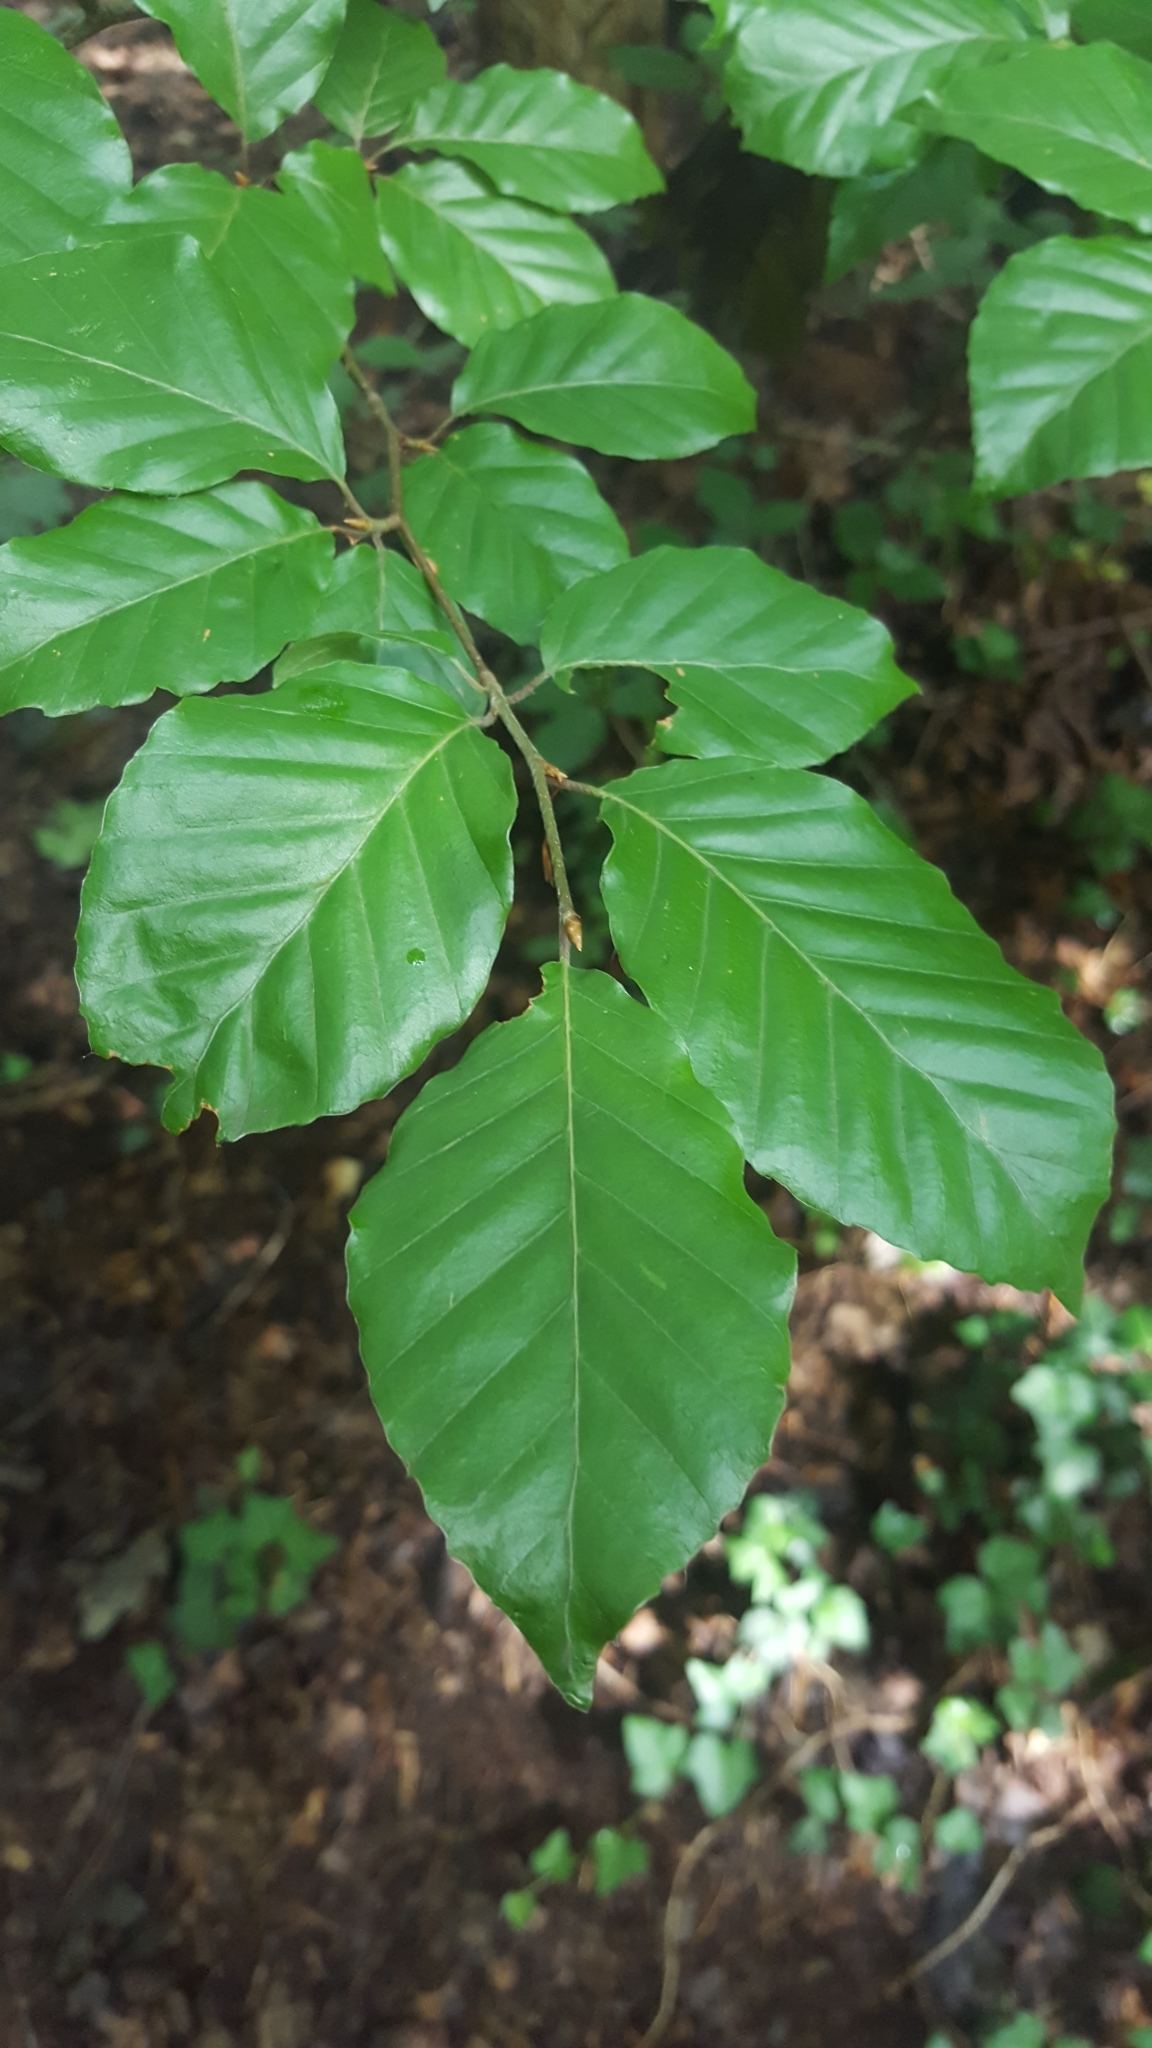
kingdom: Plantae
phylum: Tracheophyta
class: Magnoliopsida
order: Fagales
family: Fagaceae
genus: Fagus
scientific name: Fagus sylvatica
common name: Beech
